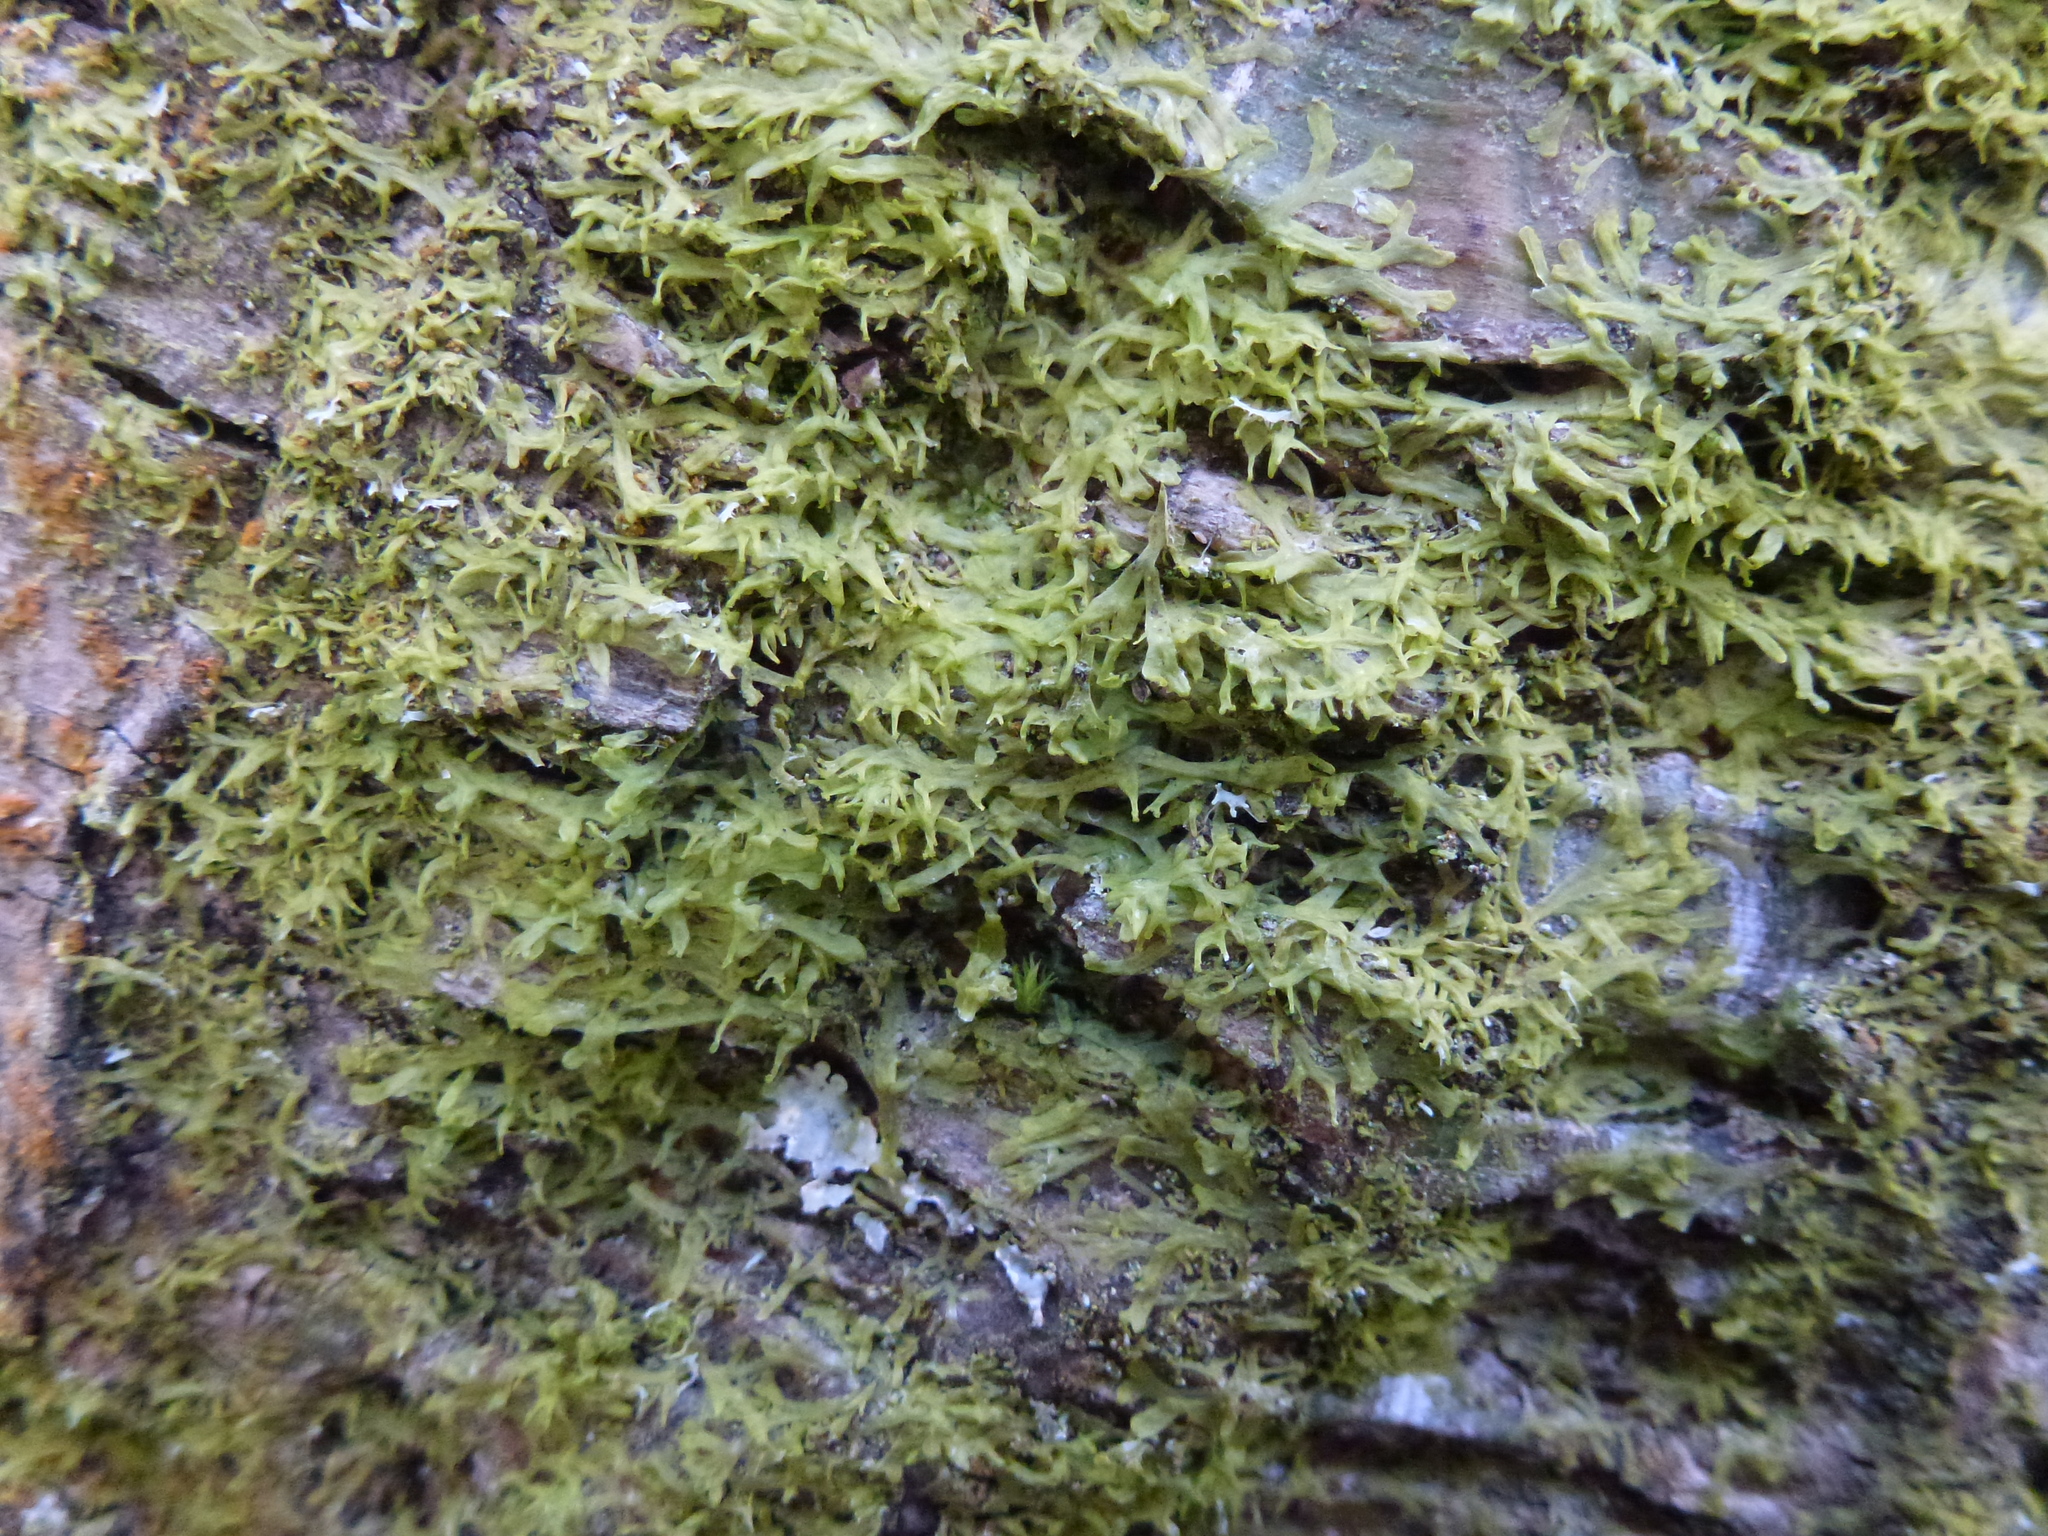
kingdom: Plantae
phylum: Marchantiophyta
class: Jungermanniopsida
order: Metzgeriales
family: Metzgeriaceae
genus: Metzgeria
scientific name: Metzgeria violacea
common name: Blueish veilwort
